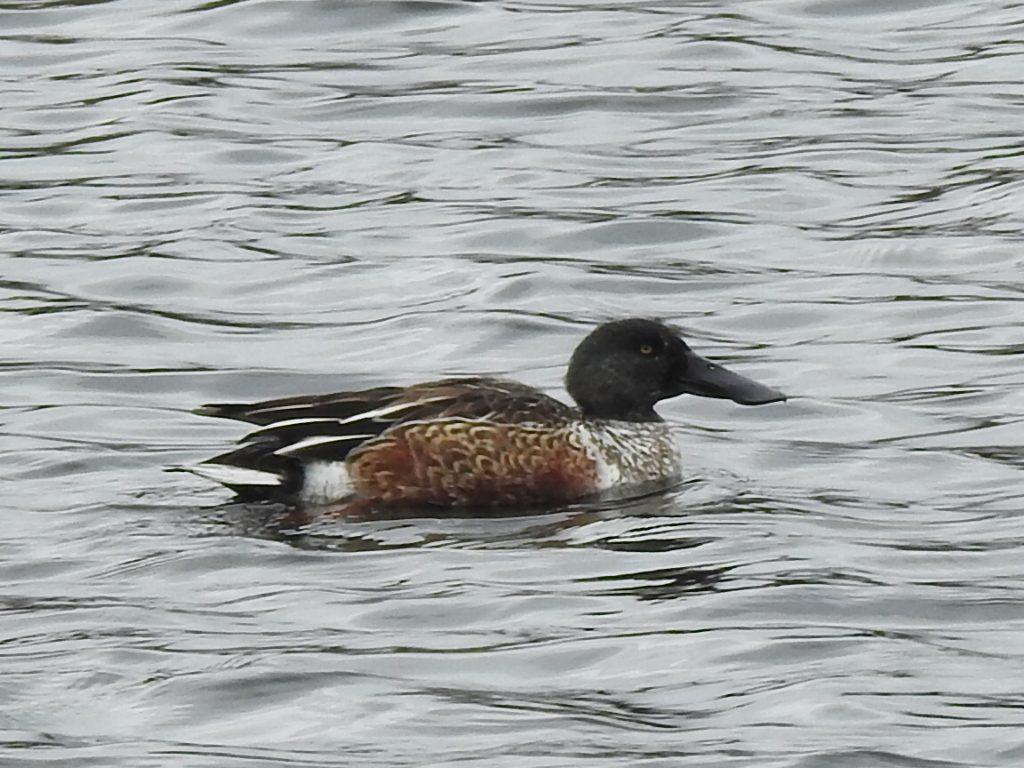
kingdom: Animalia
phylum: Chordata
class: Aves
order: Anseriformes
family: Anatidae
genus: Spatula
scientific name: Spatula clypeata
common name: Northern shoveler
